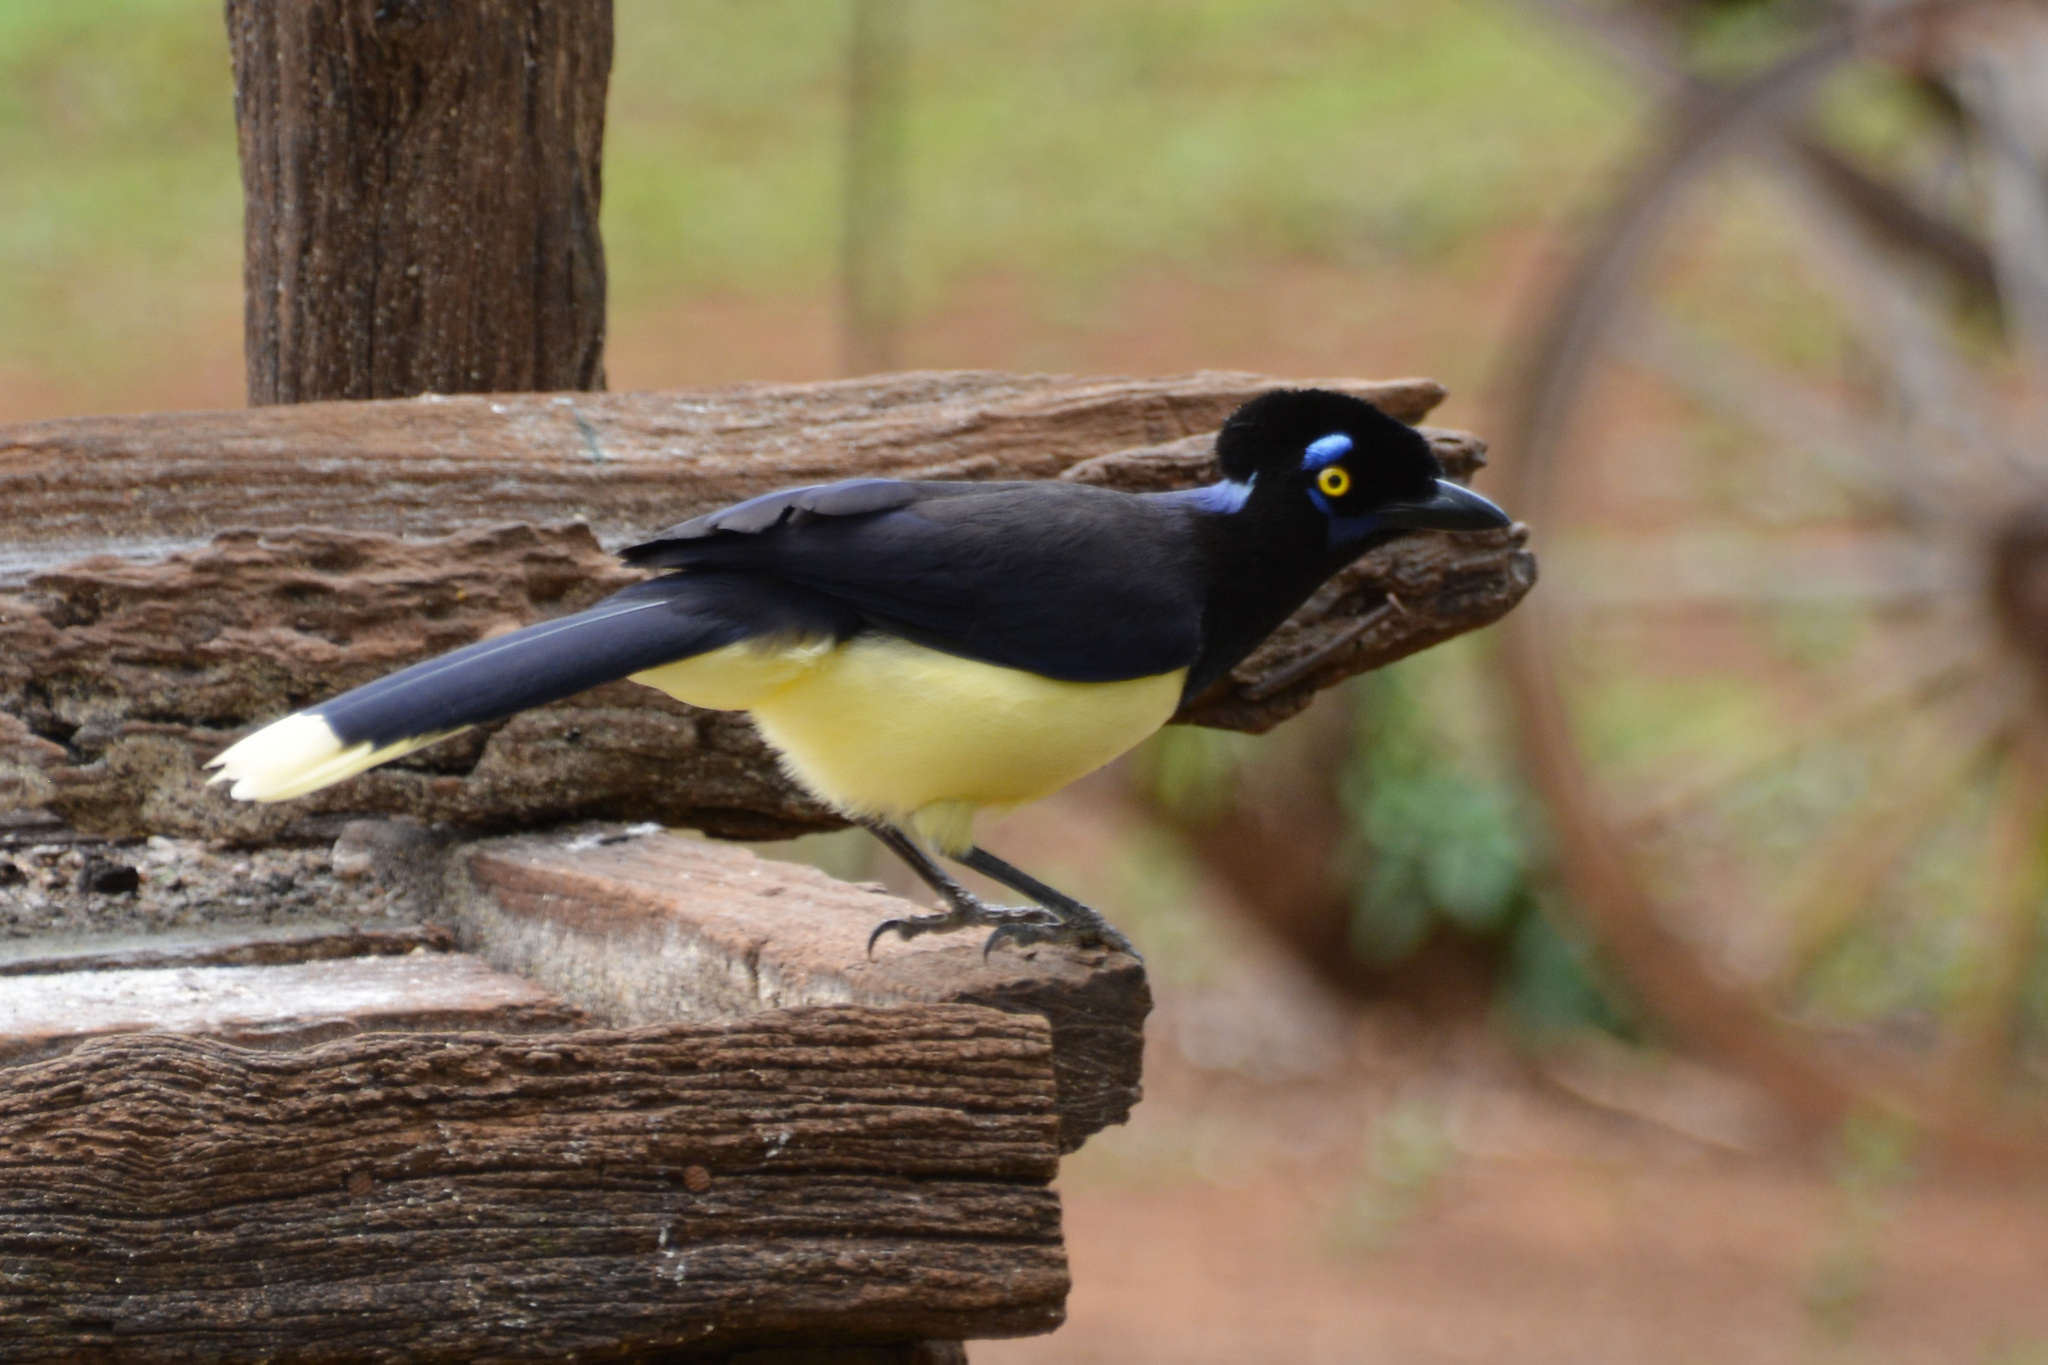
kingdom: Animalia
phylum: Chordata
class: Aves
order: Passeriformes
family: Corvidae
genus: Cyanocorax
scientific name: Cyanocorax chrysops
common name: Plush-crested jay
